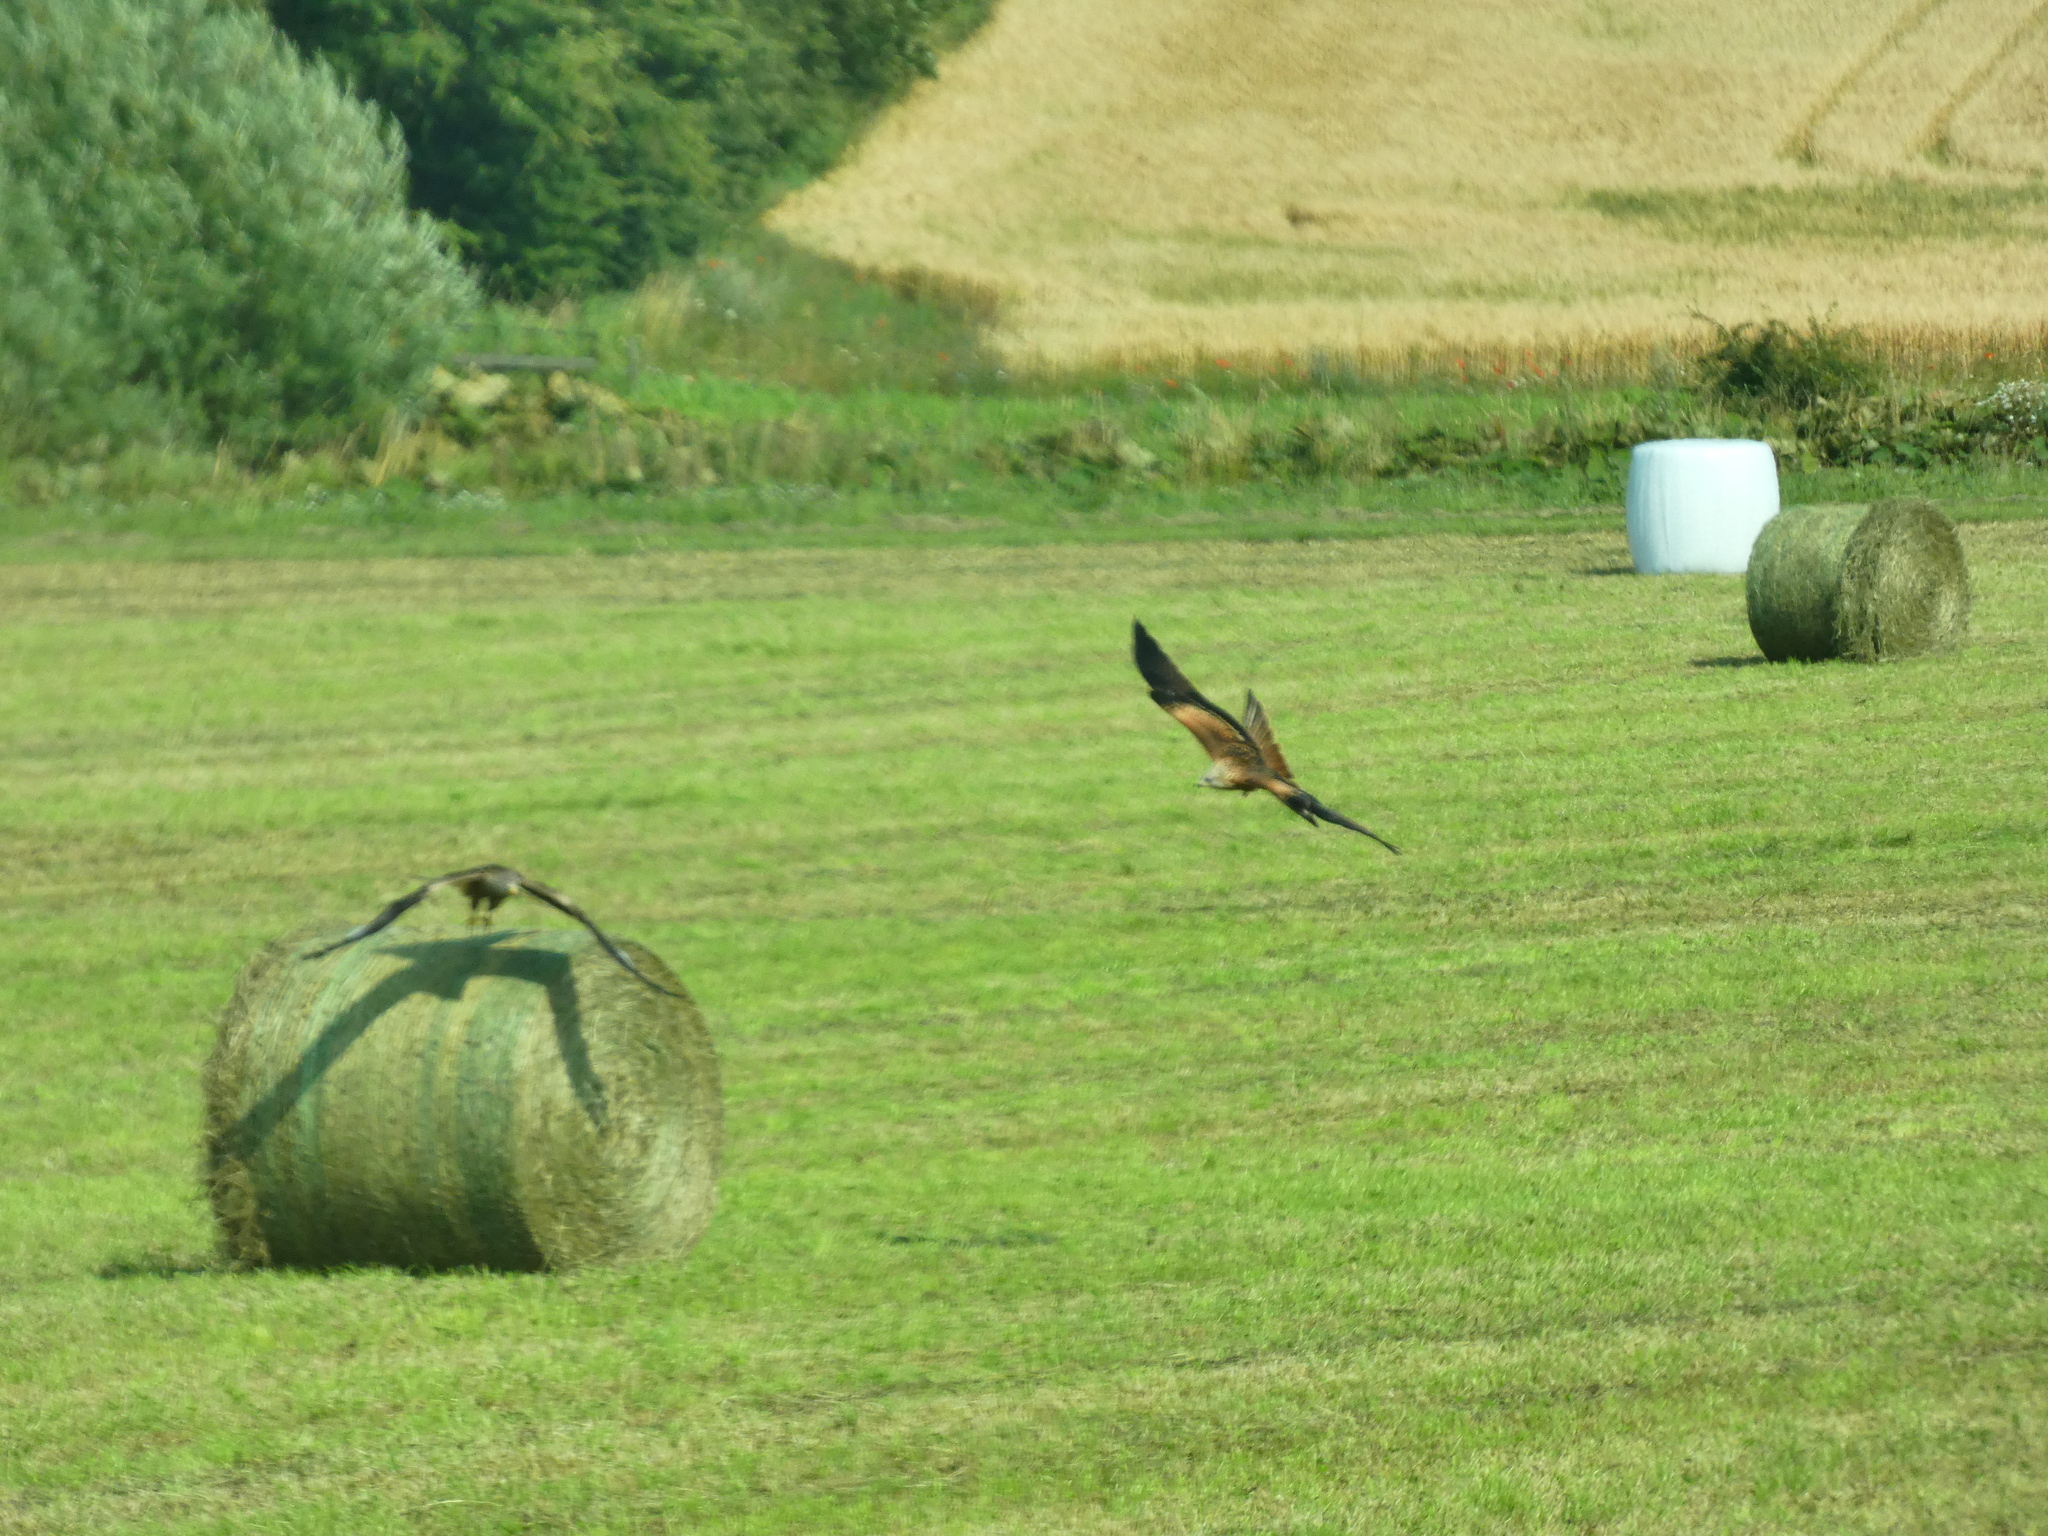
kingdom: Animalia
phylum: Chordata
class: Aves
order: Accipitriformes
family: Accipitridae
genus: Milvus
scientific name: Milvus milvus
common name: Red kite
